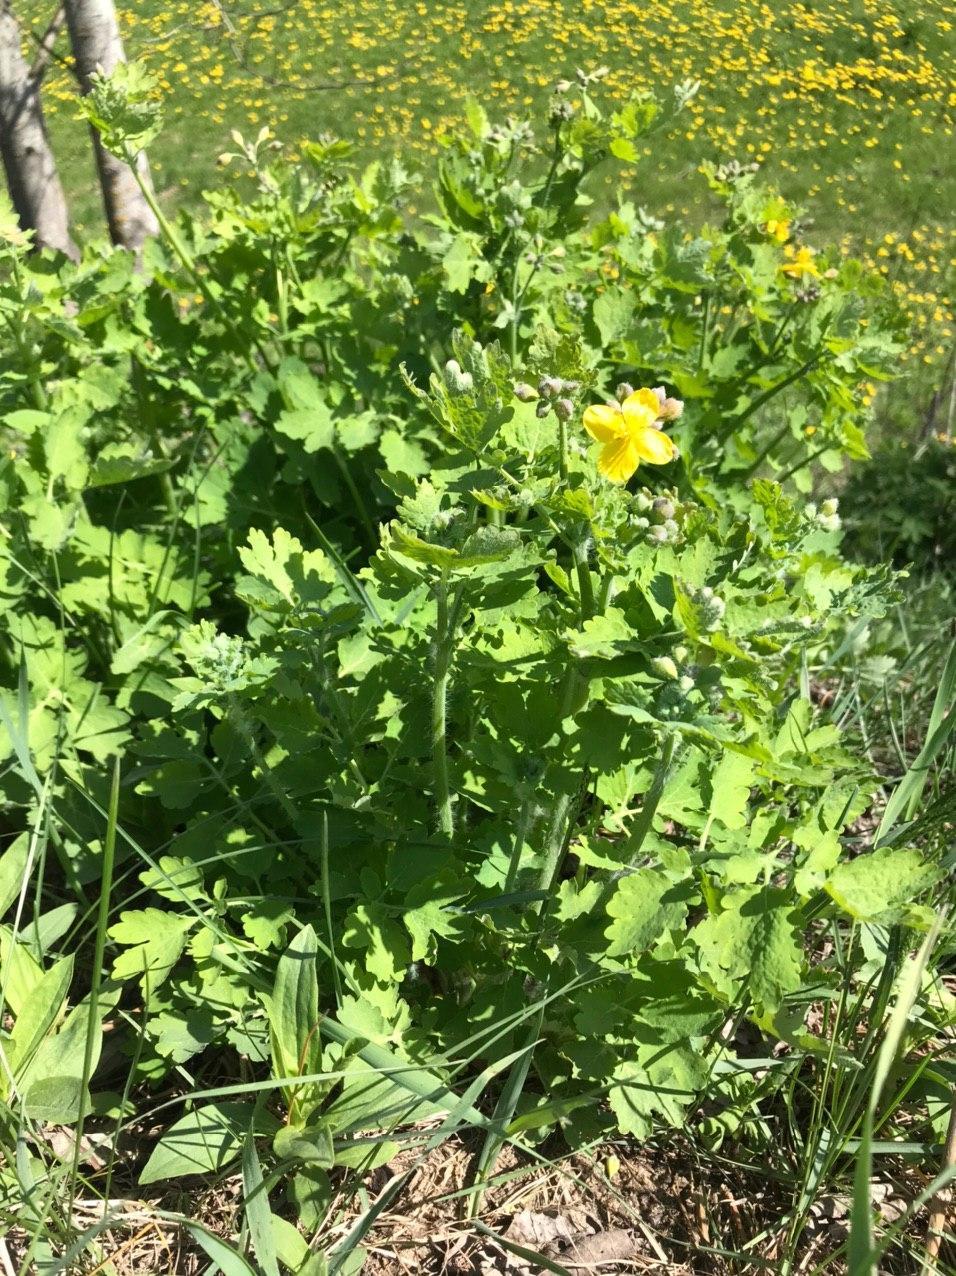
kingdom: Plantae
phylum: Tracheophyta
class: Magnoliopsida
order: Ranunculales
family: Papaveraceae
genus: Chelidonium
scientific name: Chelidonium majus
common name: Greater celandine
